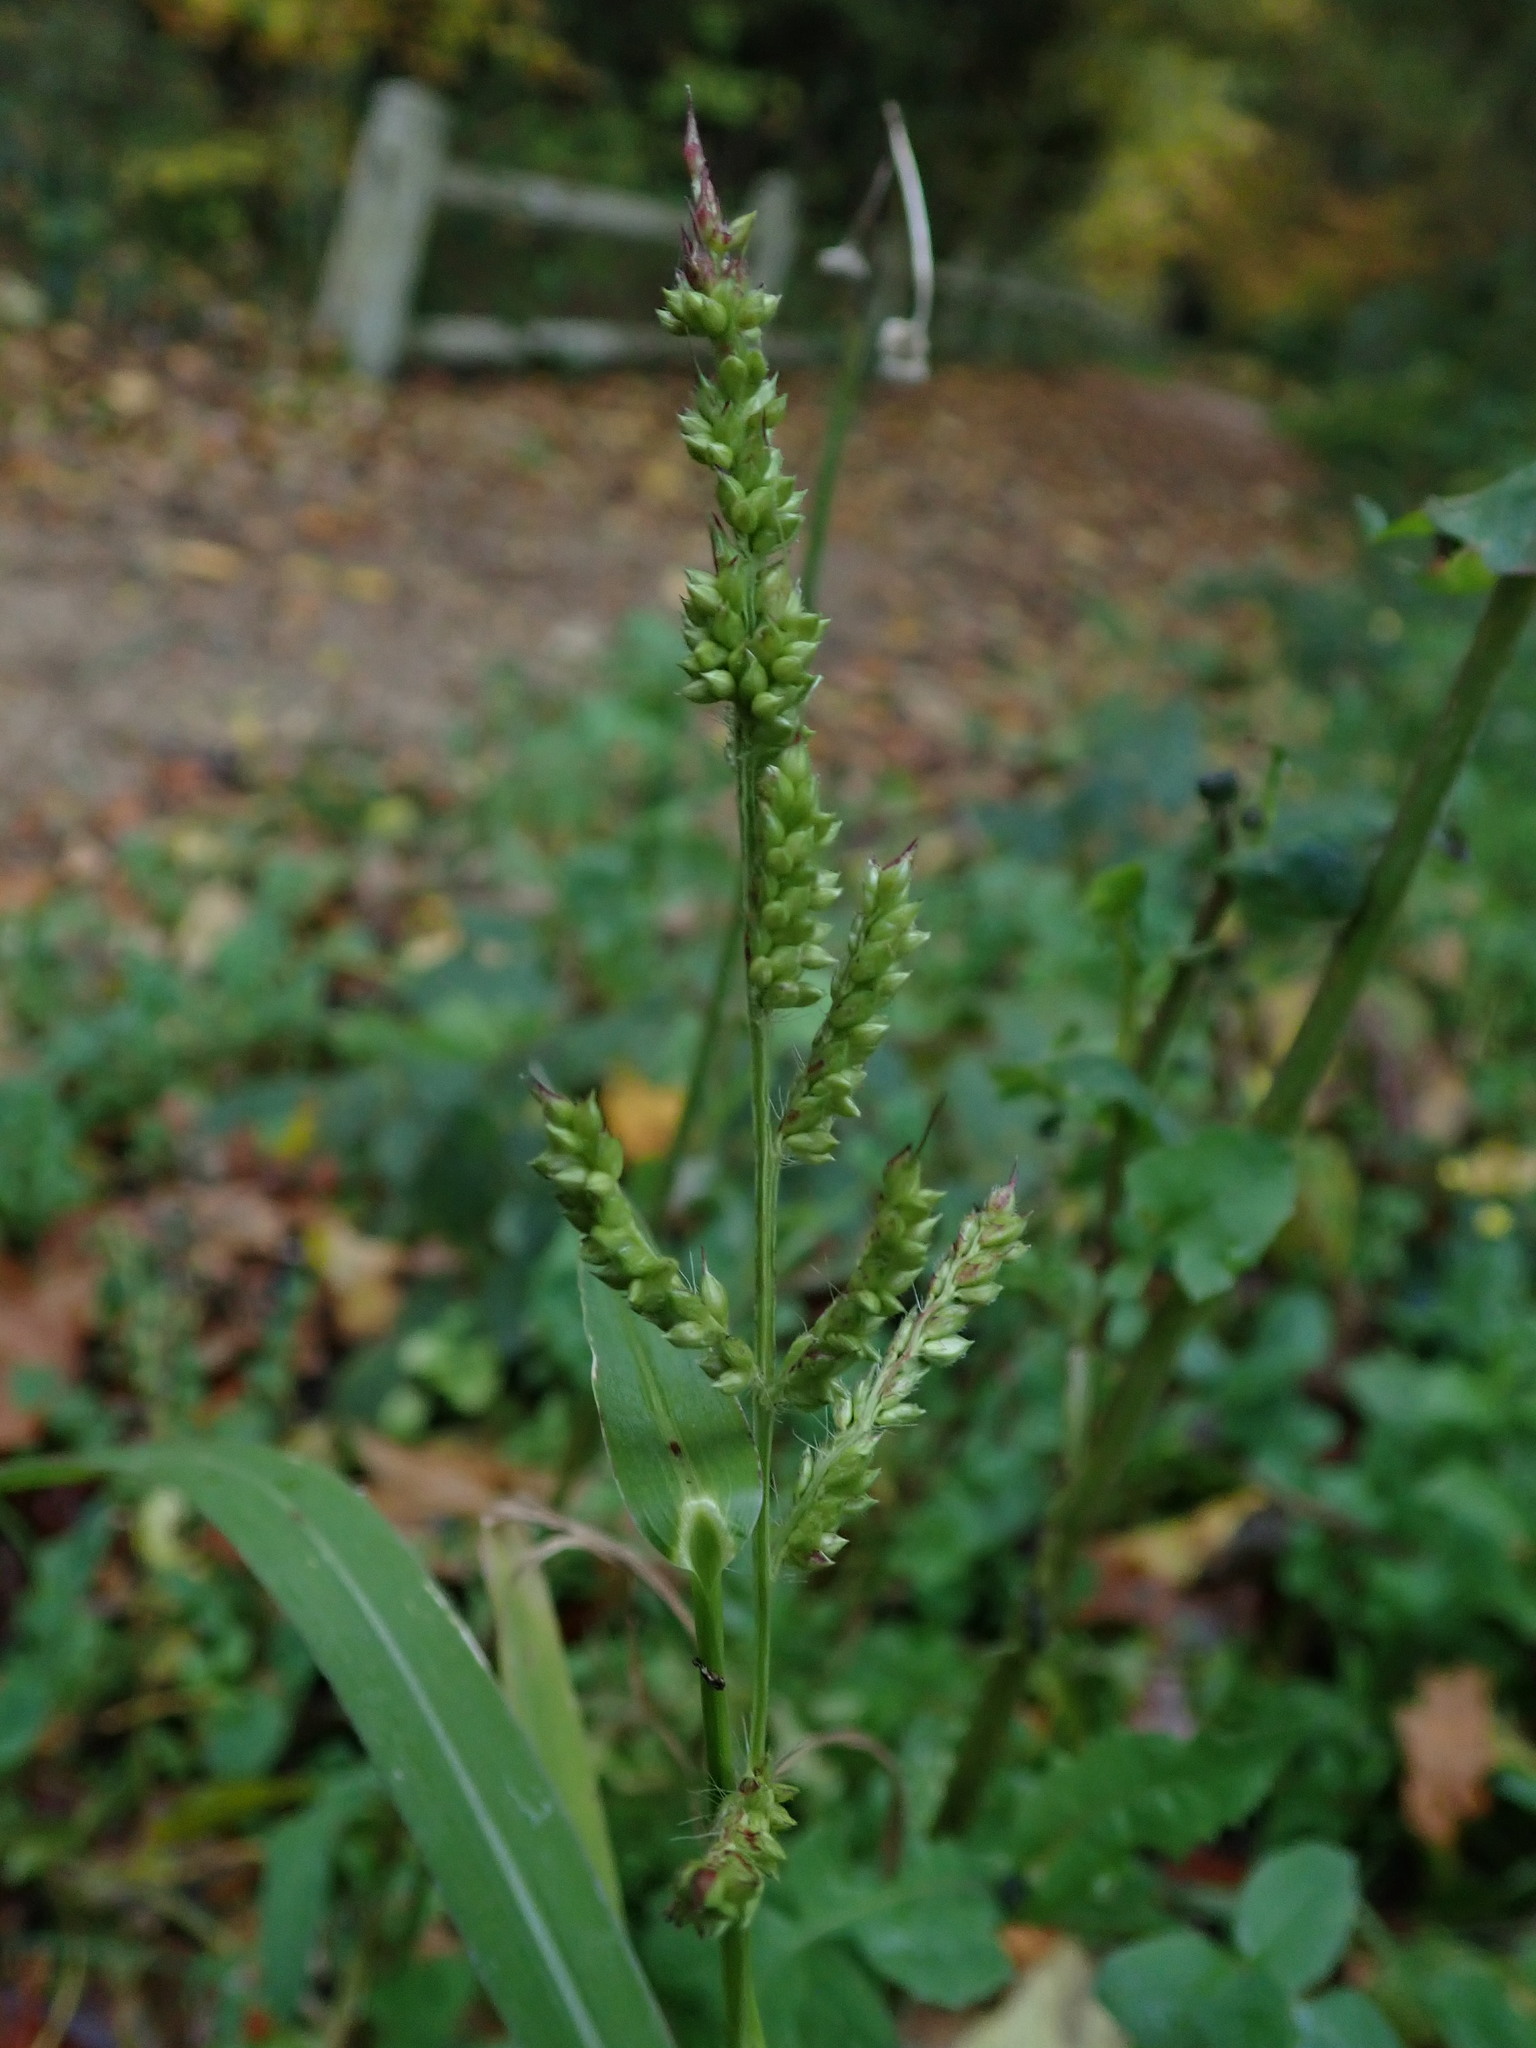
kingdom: Plantae
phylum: Tracheophyta
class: Liliopsida
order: Poales
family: Poaceae
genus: Echinochloa
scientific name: Echinochloa crus-galli
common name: Cockspur
